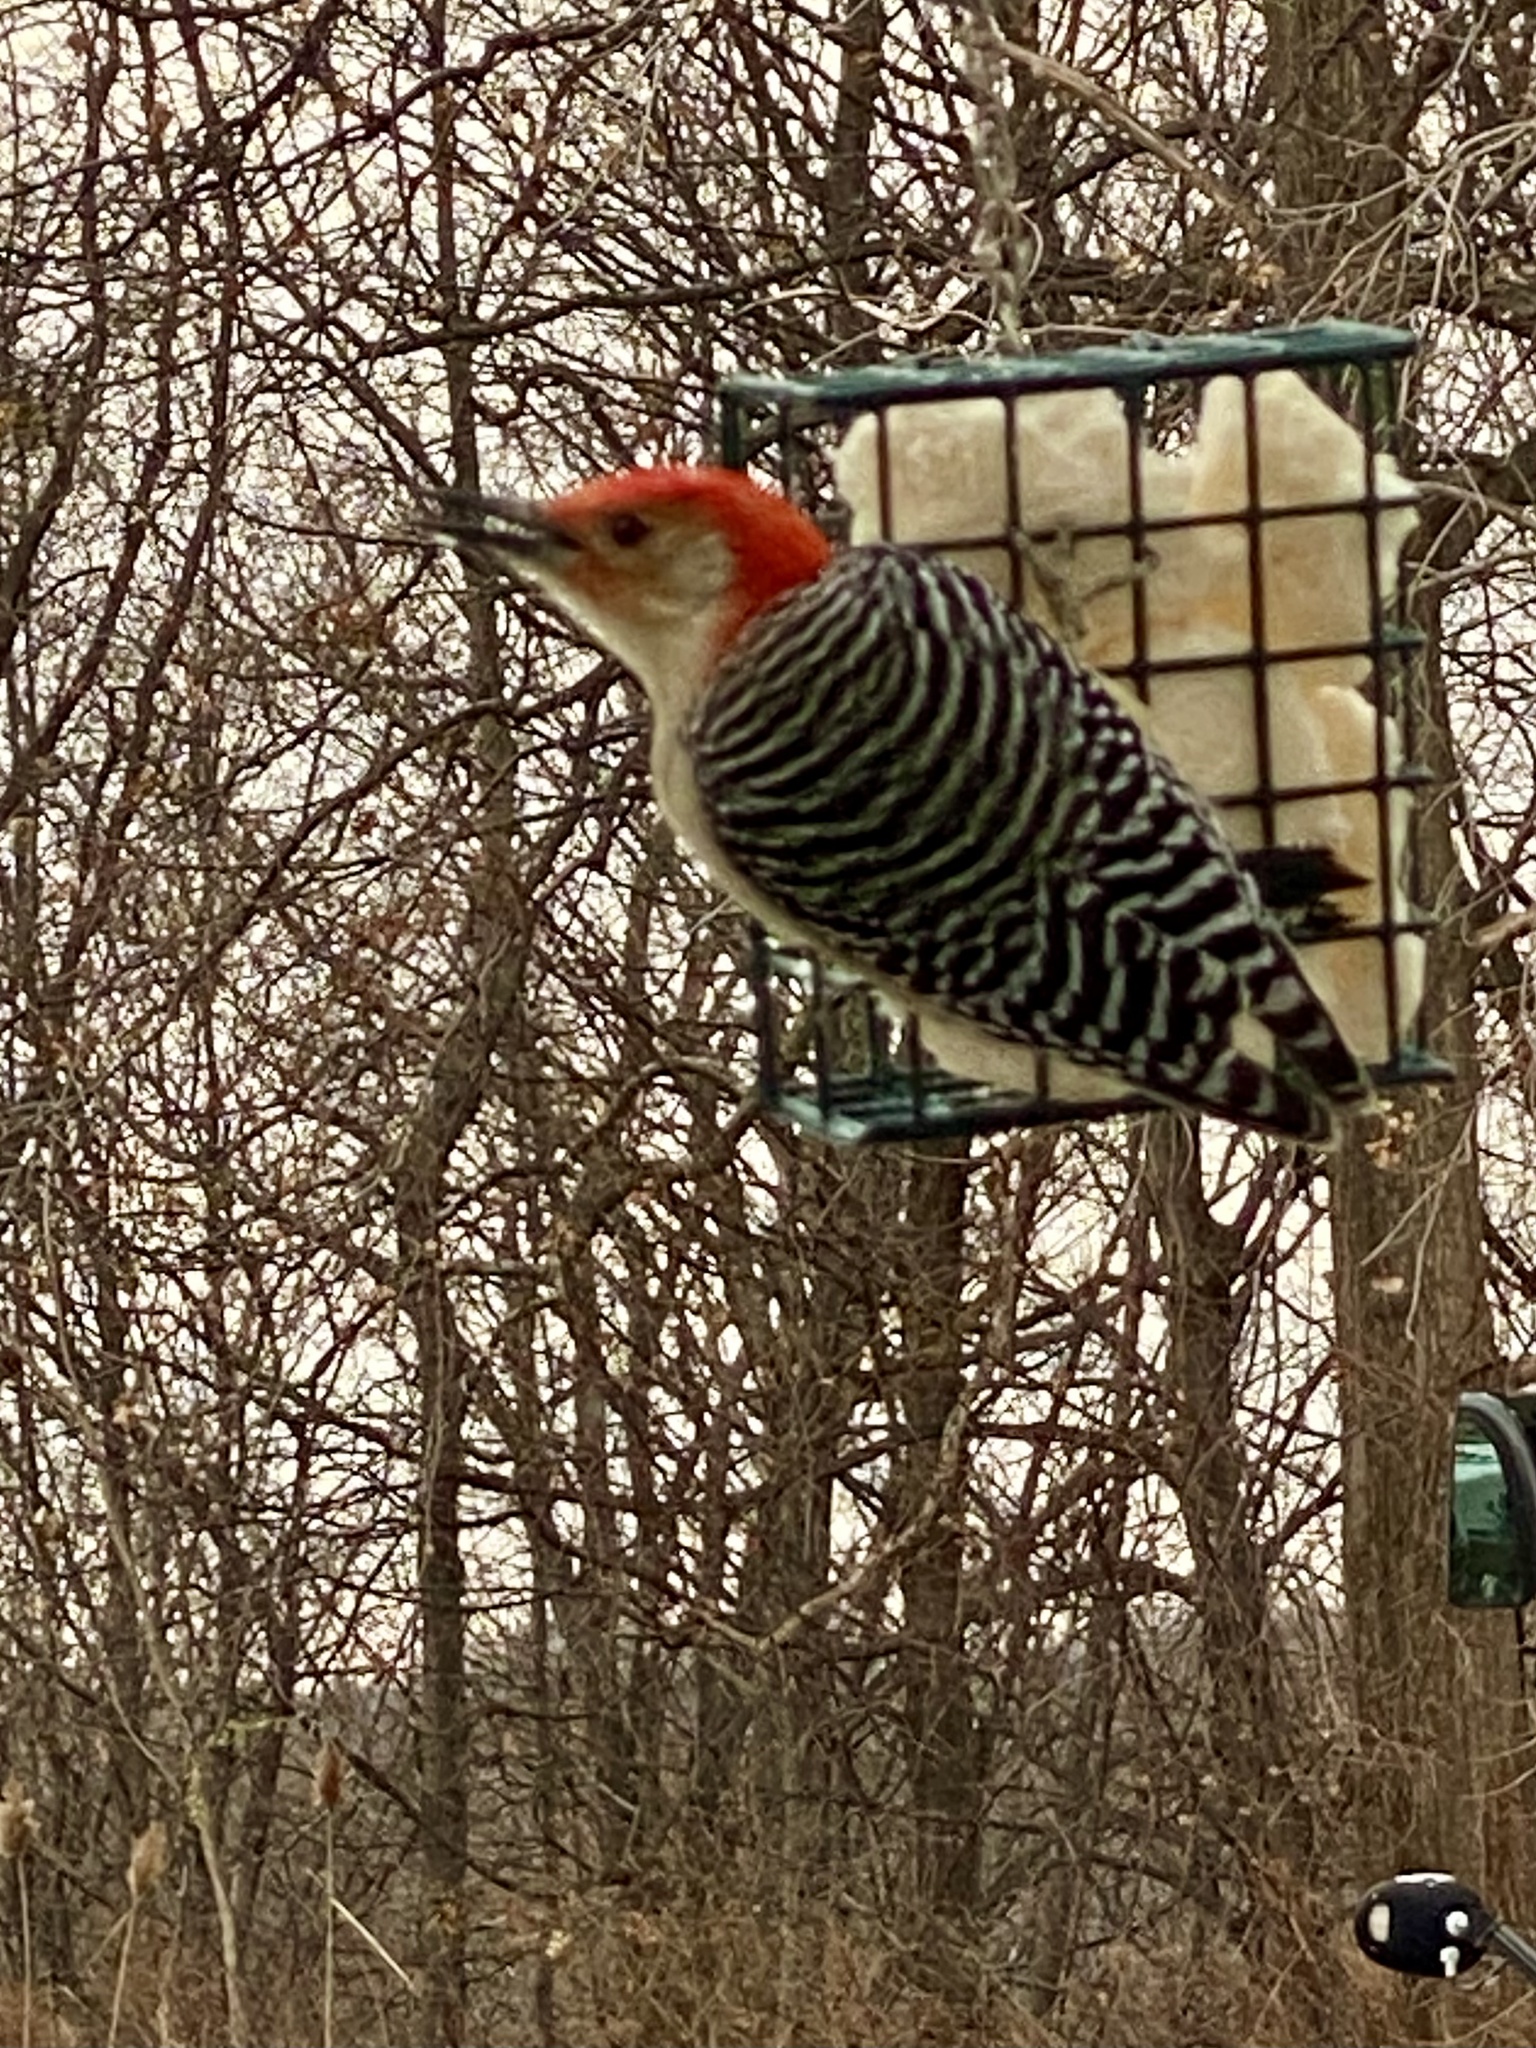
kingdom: Animalia
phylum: Chordata
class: Aves
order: Piciformes
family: Picidae
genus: Melanerpes
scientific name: Melanerpes carolinus
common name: Red-bellied woodpecker
